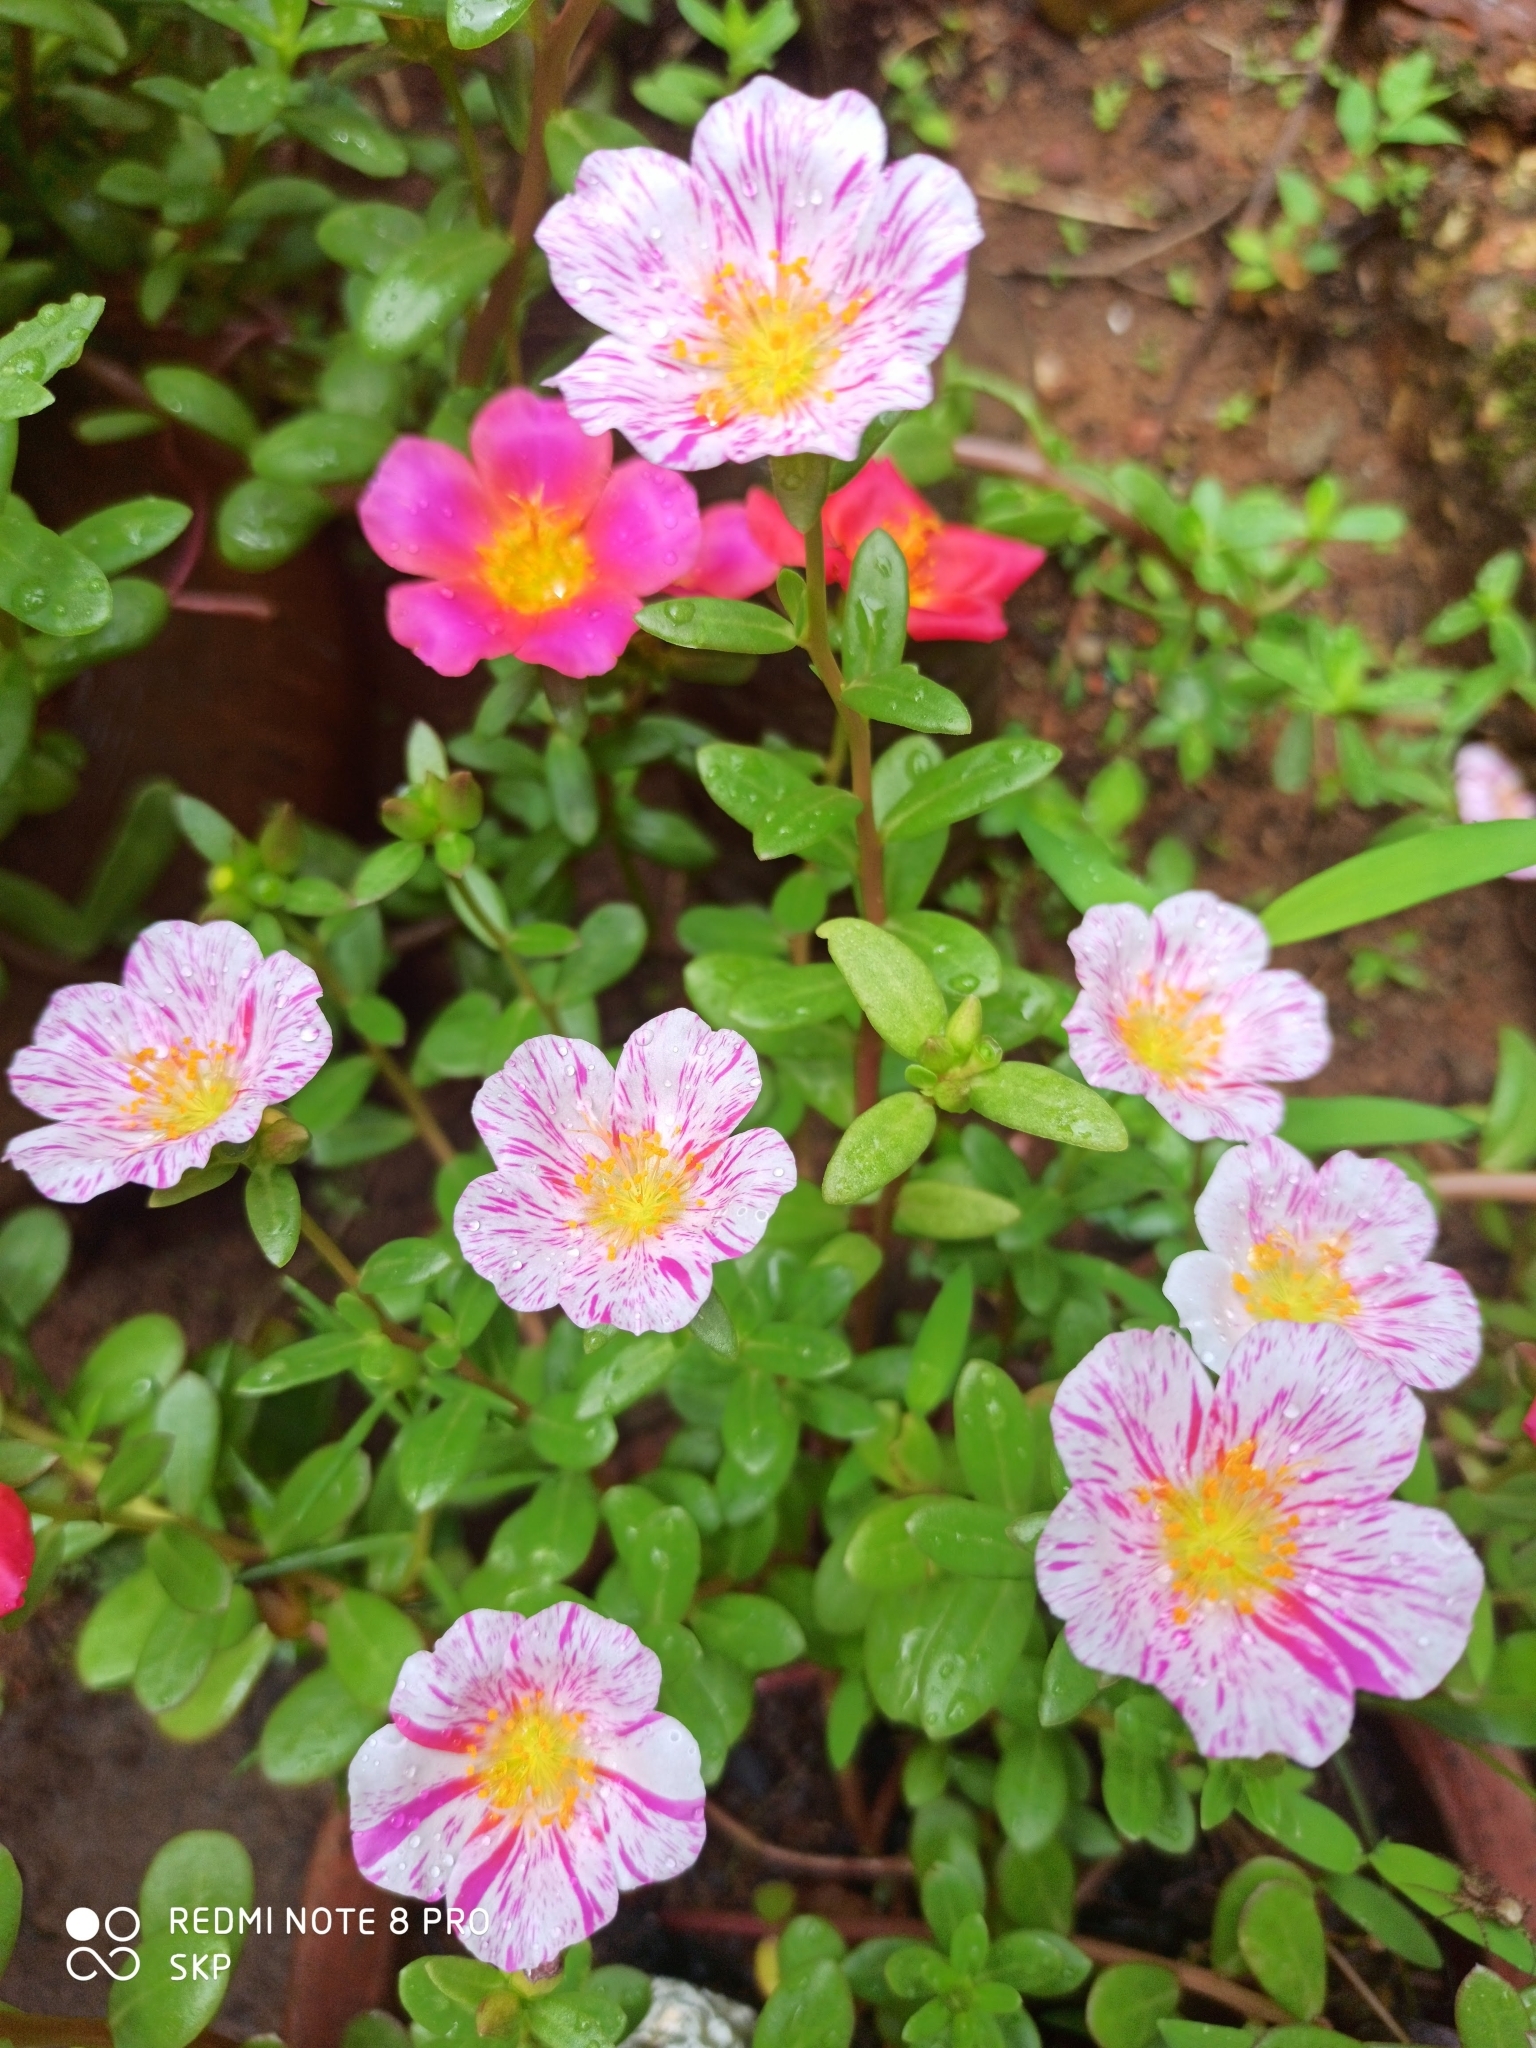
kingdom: Plantae
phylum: Tracheophyta
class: Magnoliopsida
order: Caryophyllales
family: Portulacaceae
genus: Portulaca
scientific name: Portulaca umbraticola
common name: Wingpod purslane
